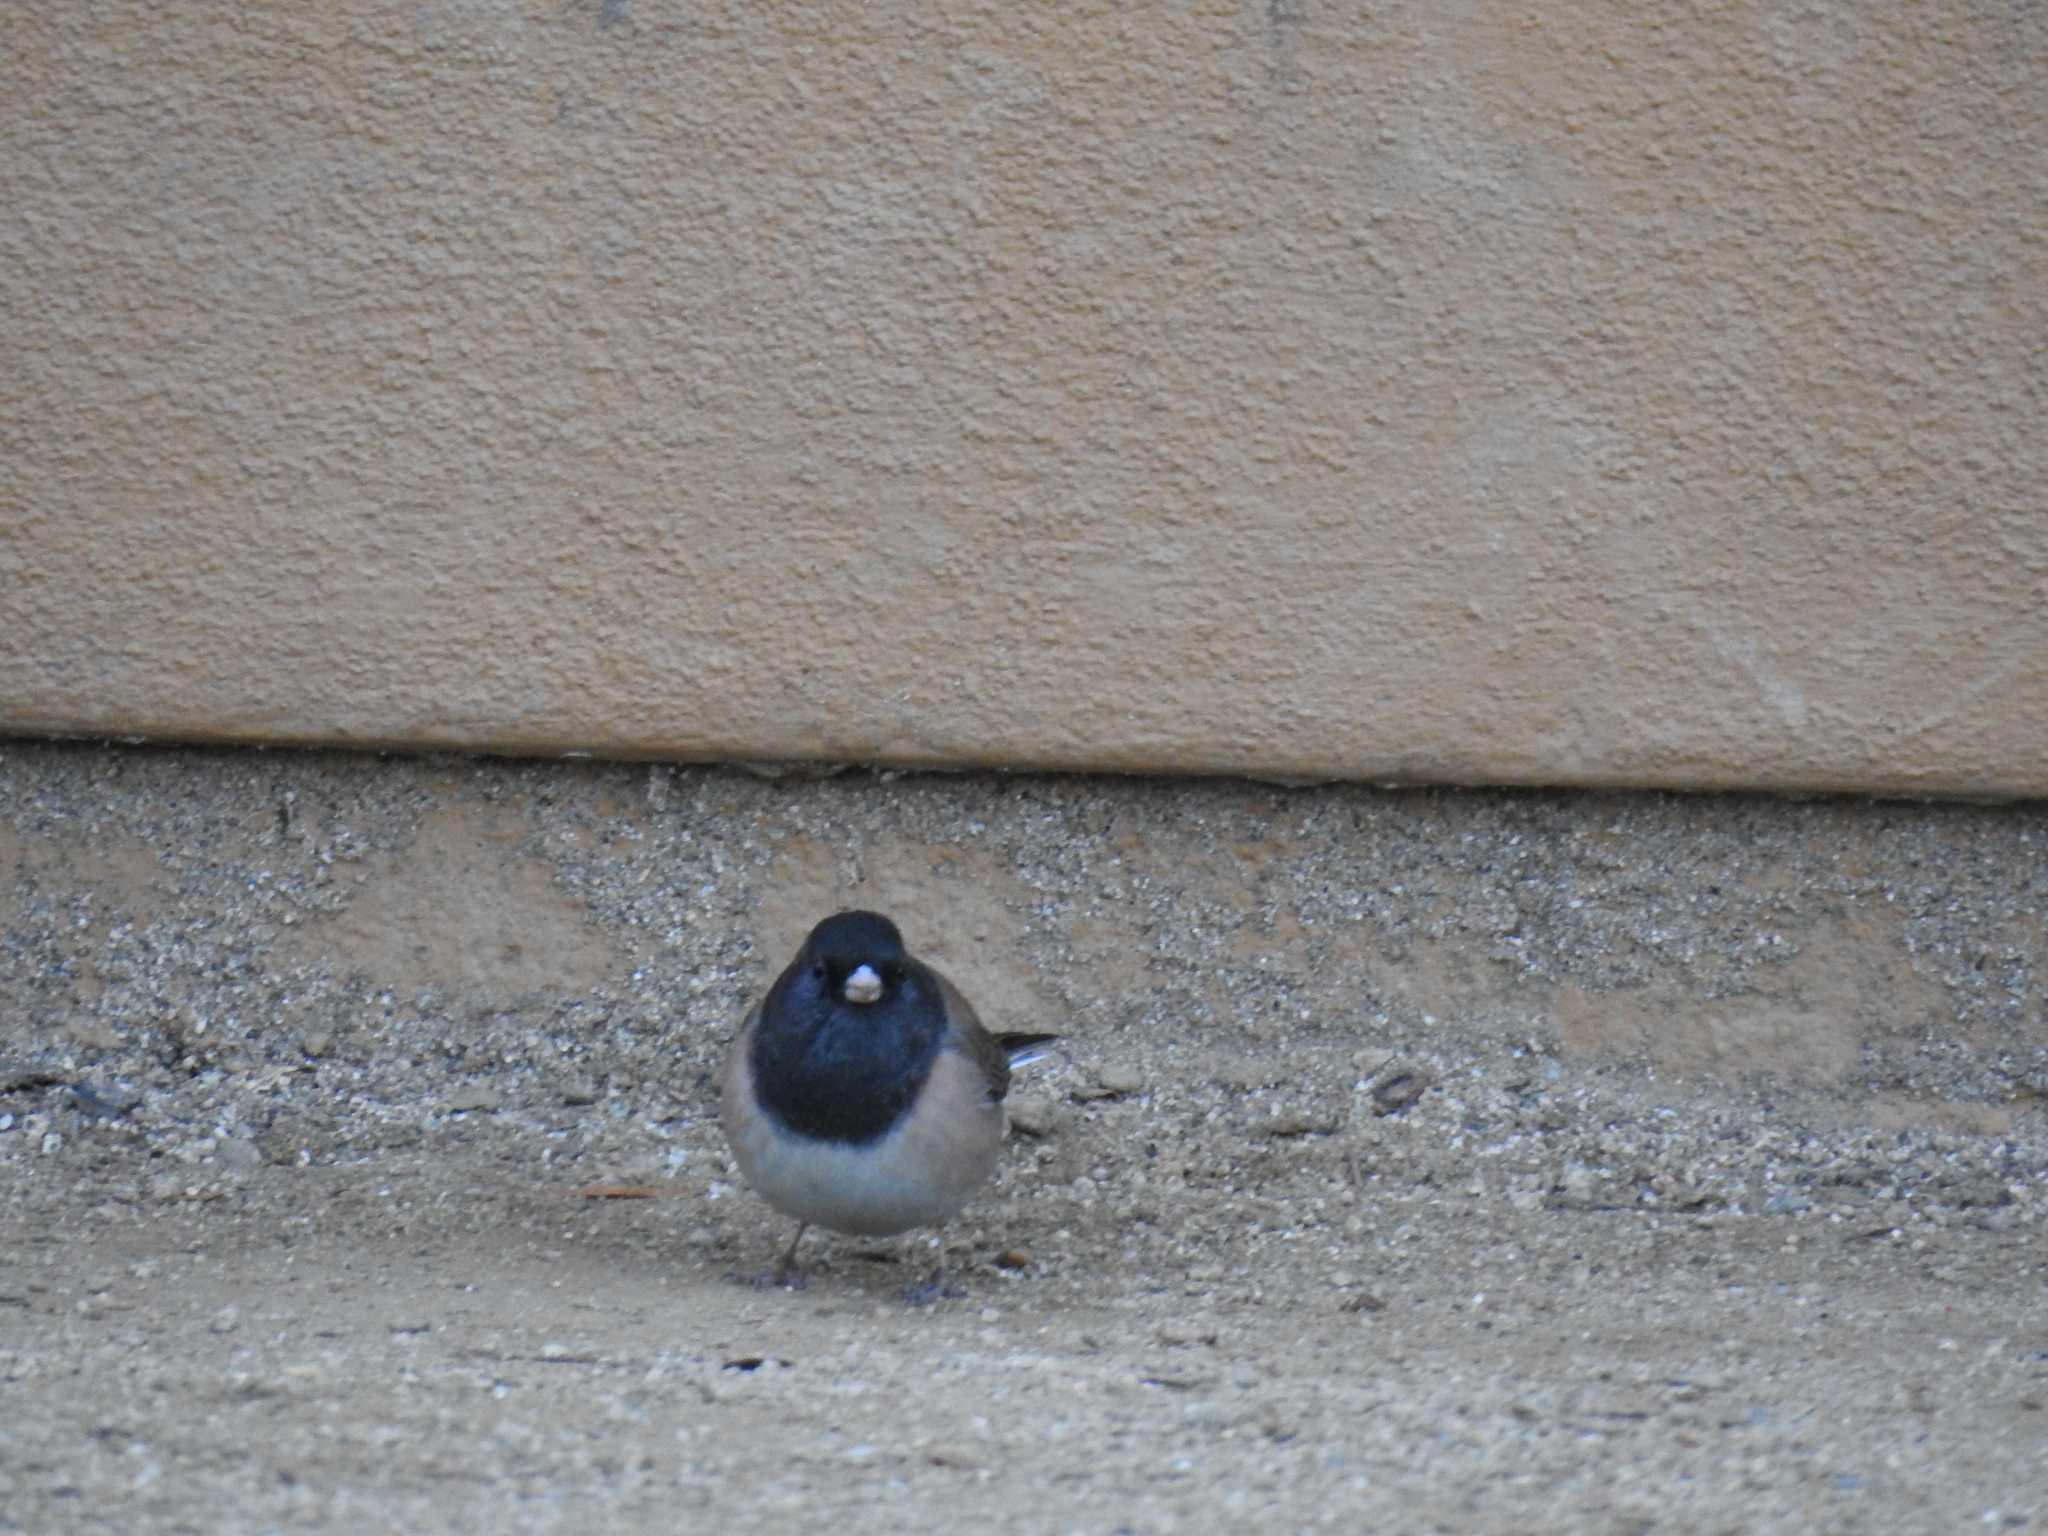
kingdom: Animalia
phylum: Chordata
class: Aves
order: Passeriformes
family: Passerellidae
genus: Junco
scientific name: Junco hyemalis
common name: Dark-eyed junco
